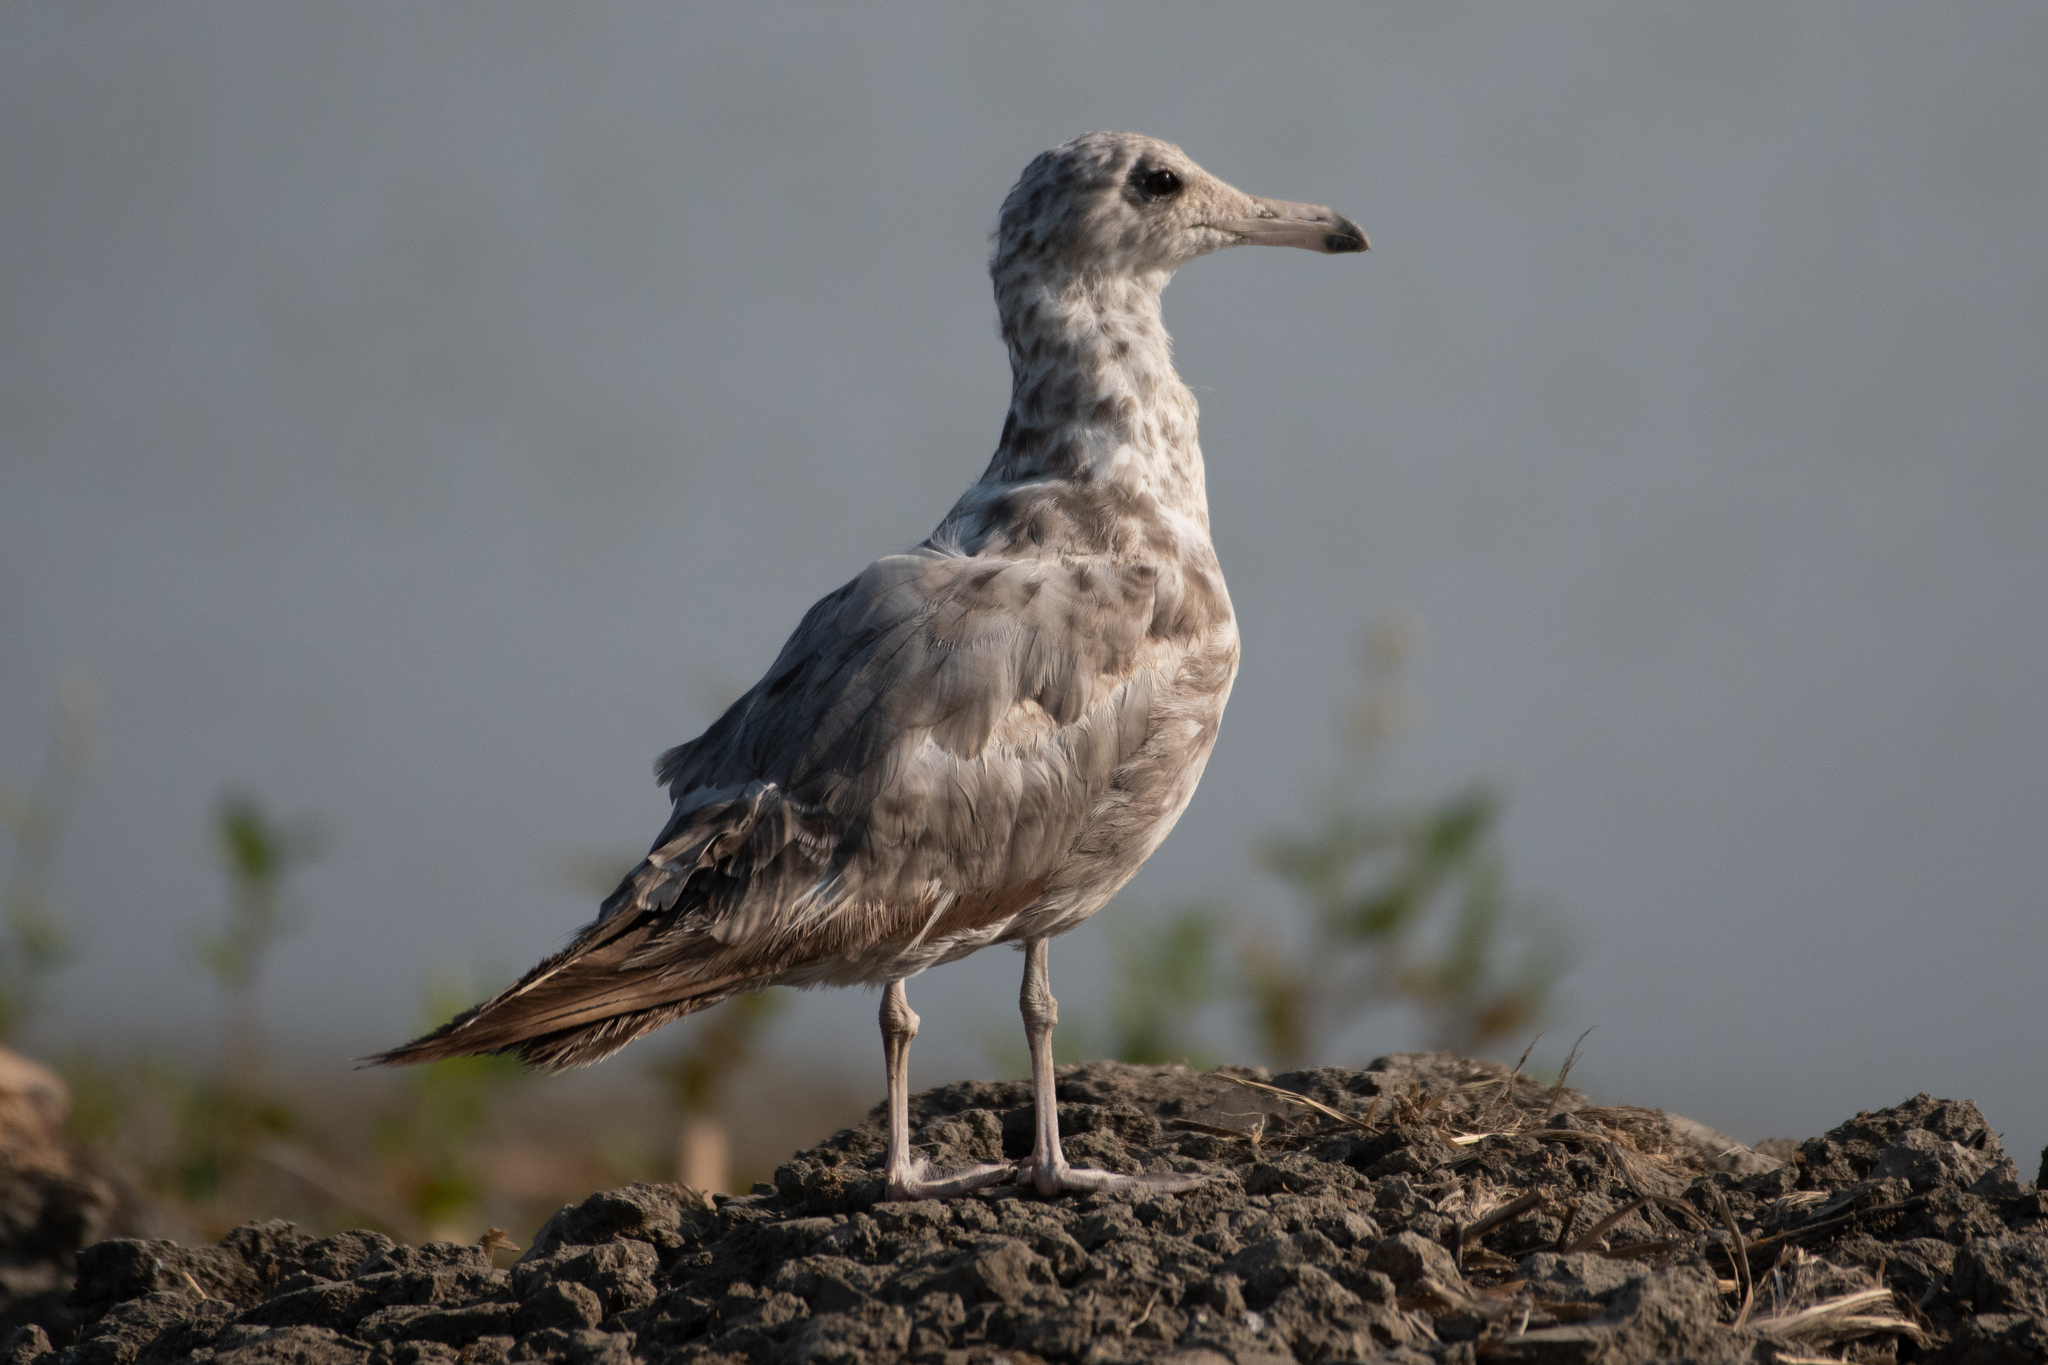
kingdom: Animalia
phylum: Chordata
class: Aves
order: Charadriiformes
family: Laridae
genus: Larus
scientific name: Larus californicus
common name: California gull
